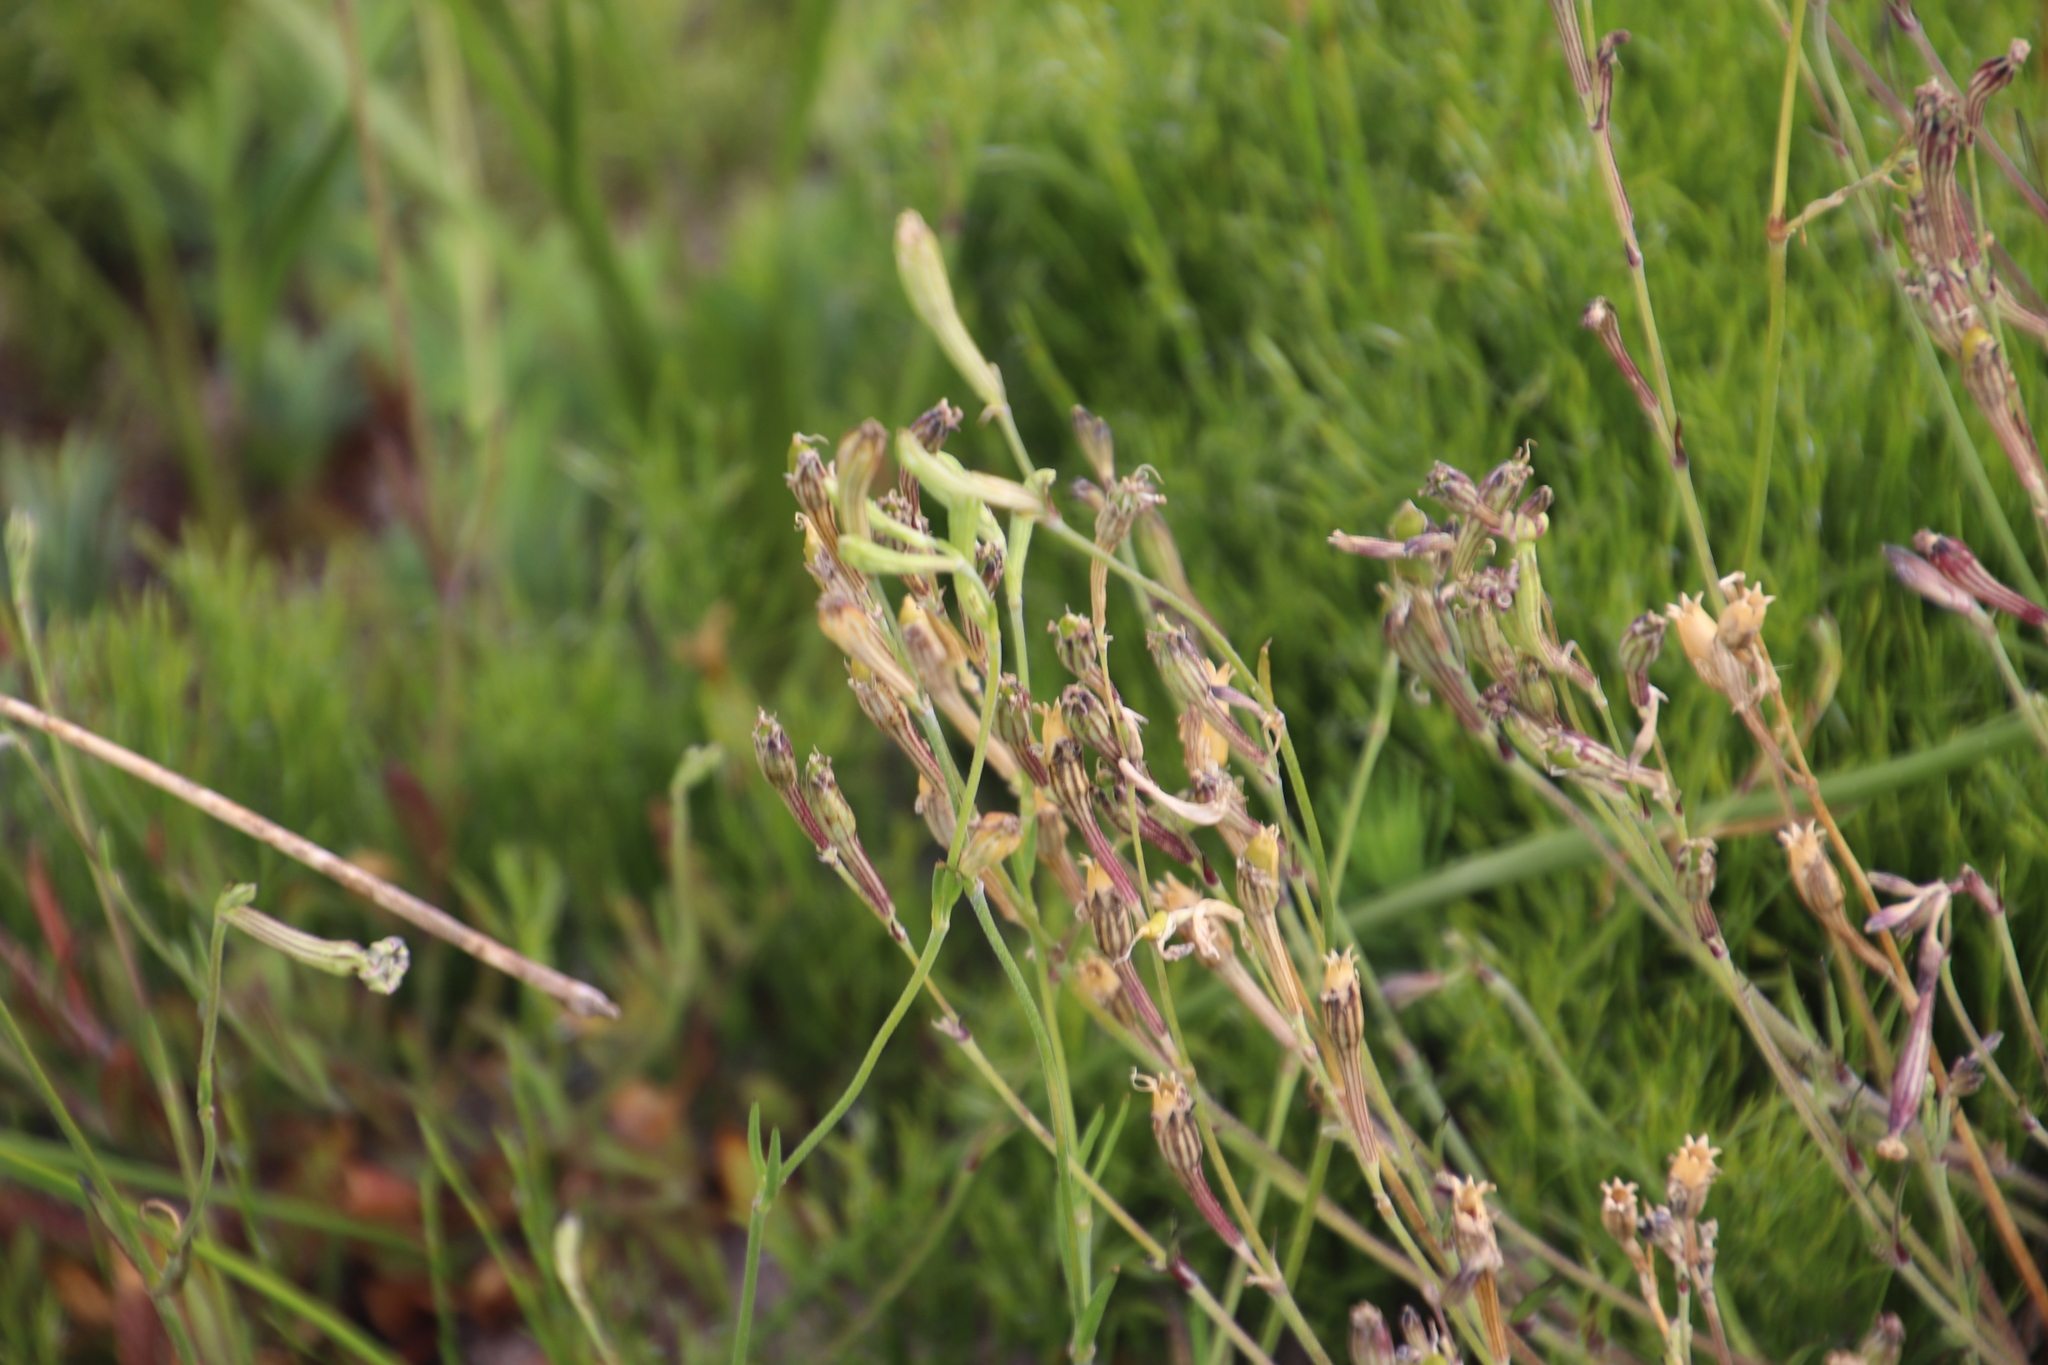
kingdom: Plantae
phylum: Tracheophyta
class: Magnoliopsida
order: Caryophyllales
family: Caryophyllaceae
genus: Silene
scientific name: Silene burchellii
